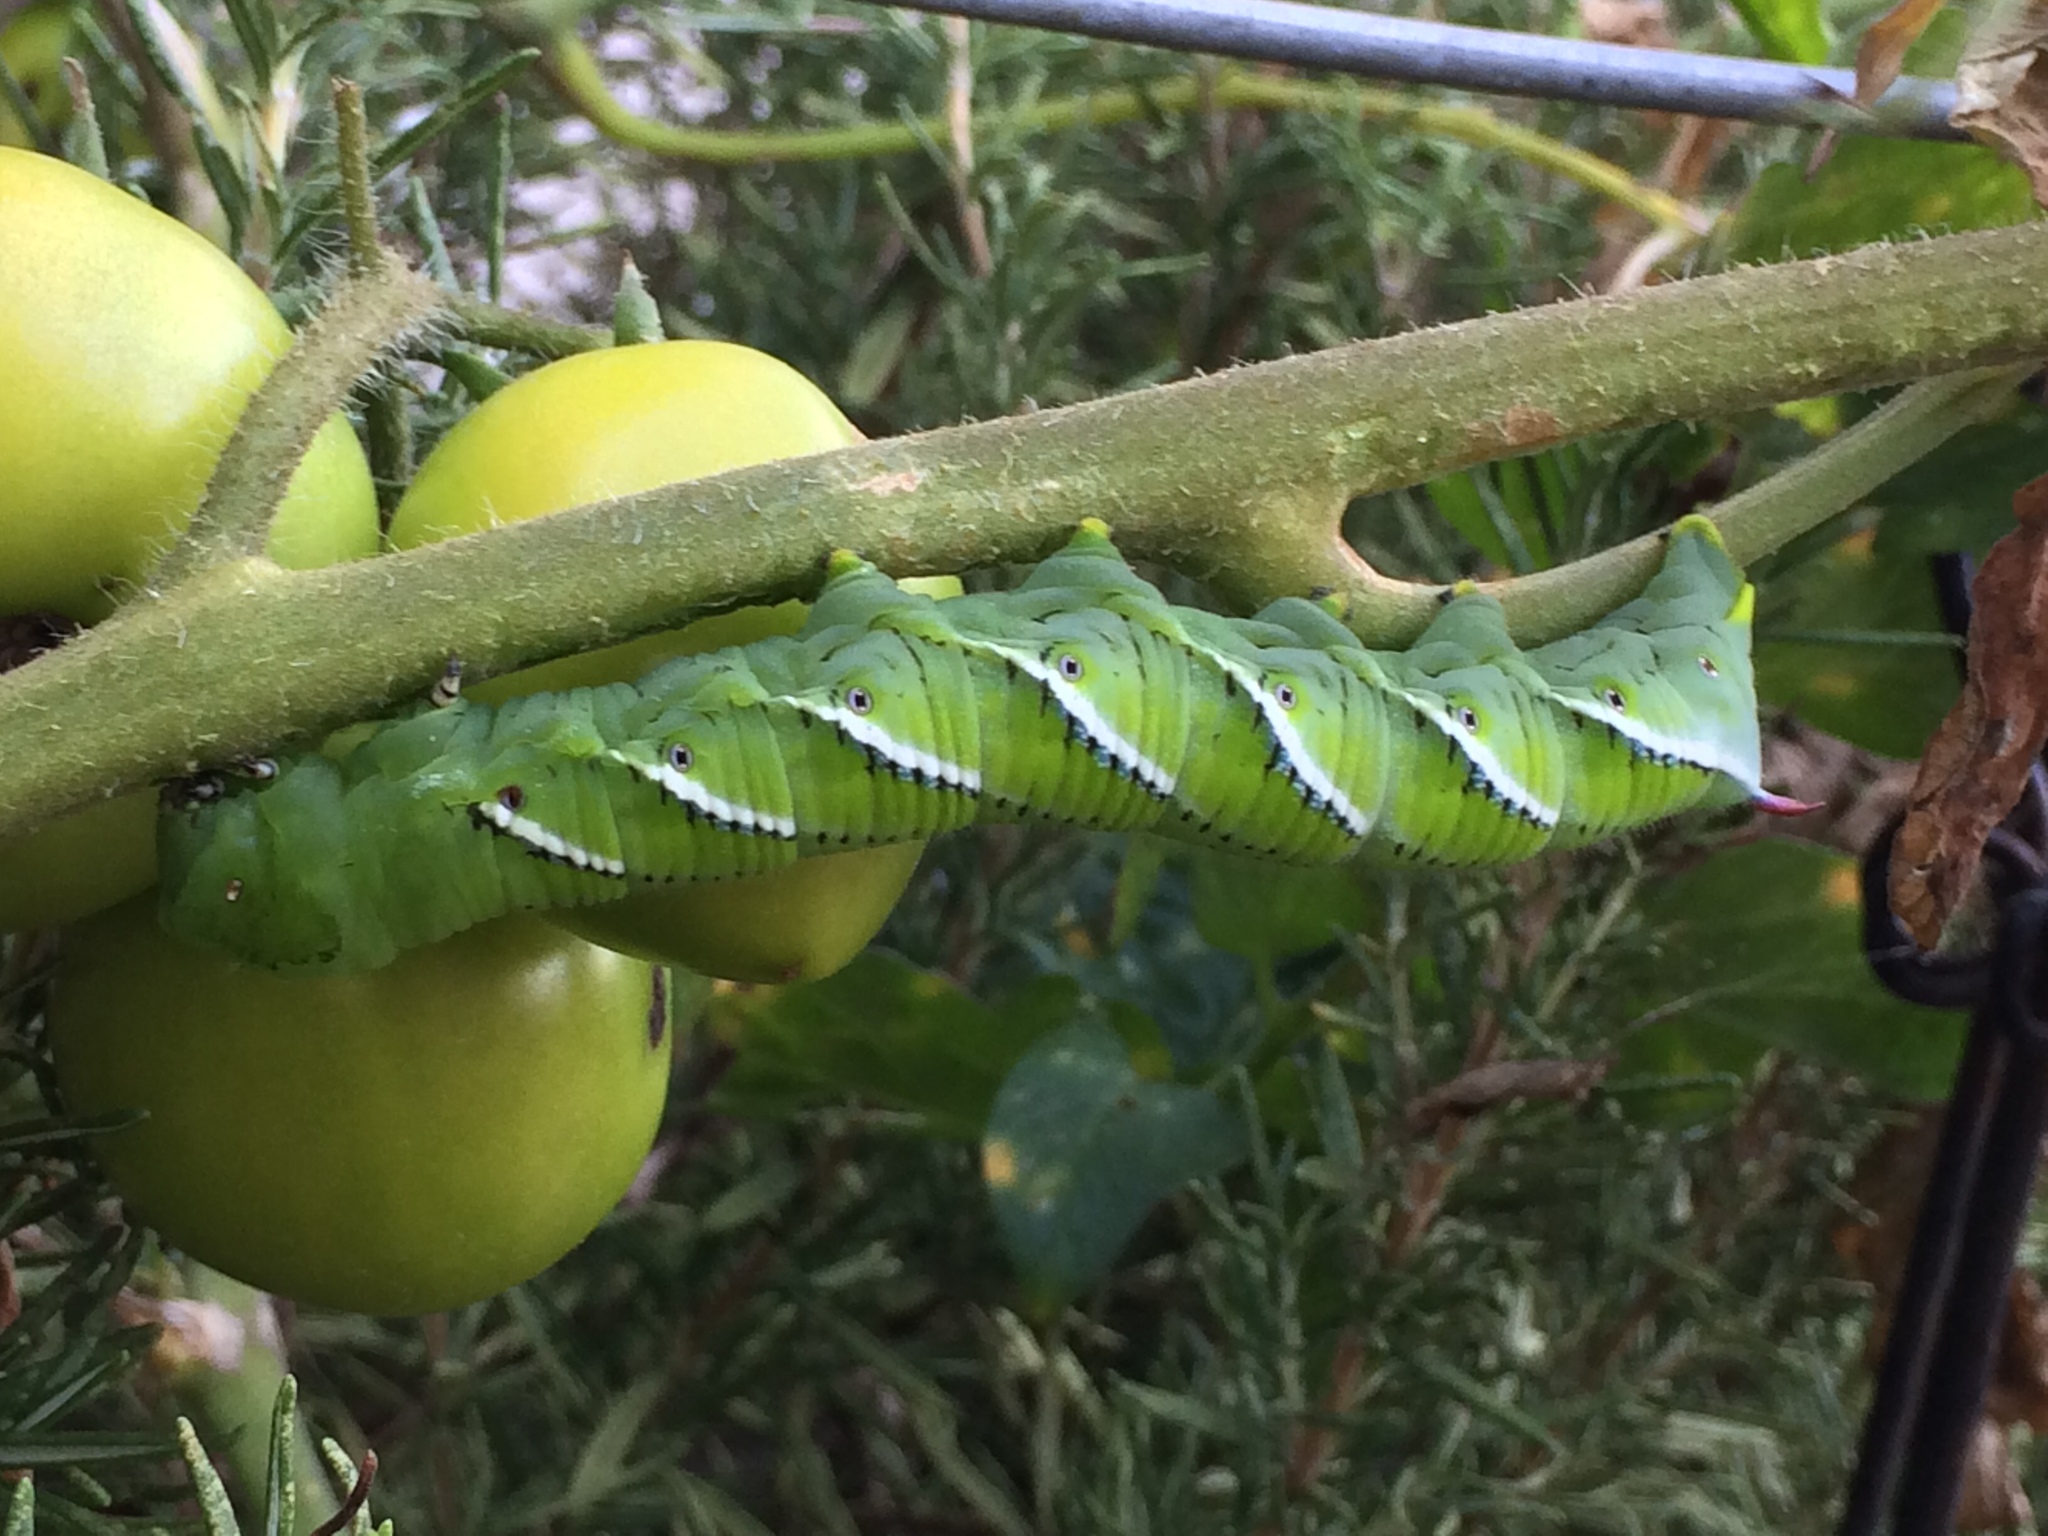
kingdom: Animalia
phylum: Arthropoda
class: Insecta
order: Lepidoptera
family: Sphingidae
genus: Manduca
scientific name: Manduca sexta
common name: Carolina sphinx
